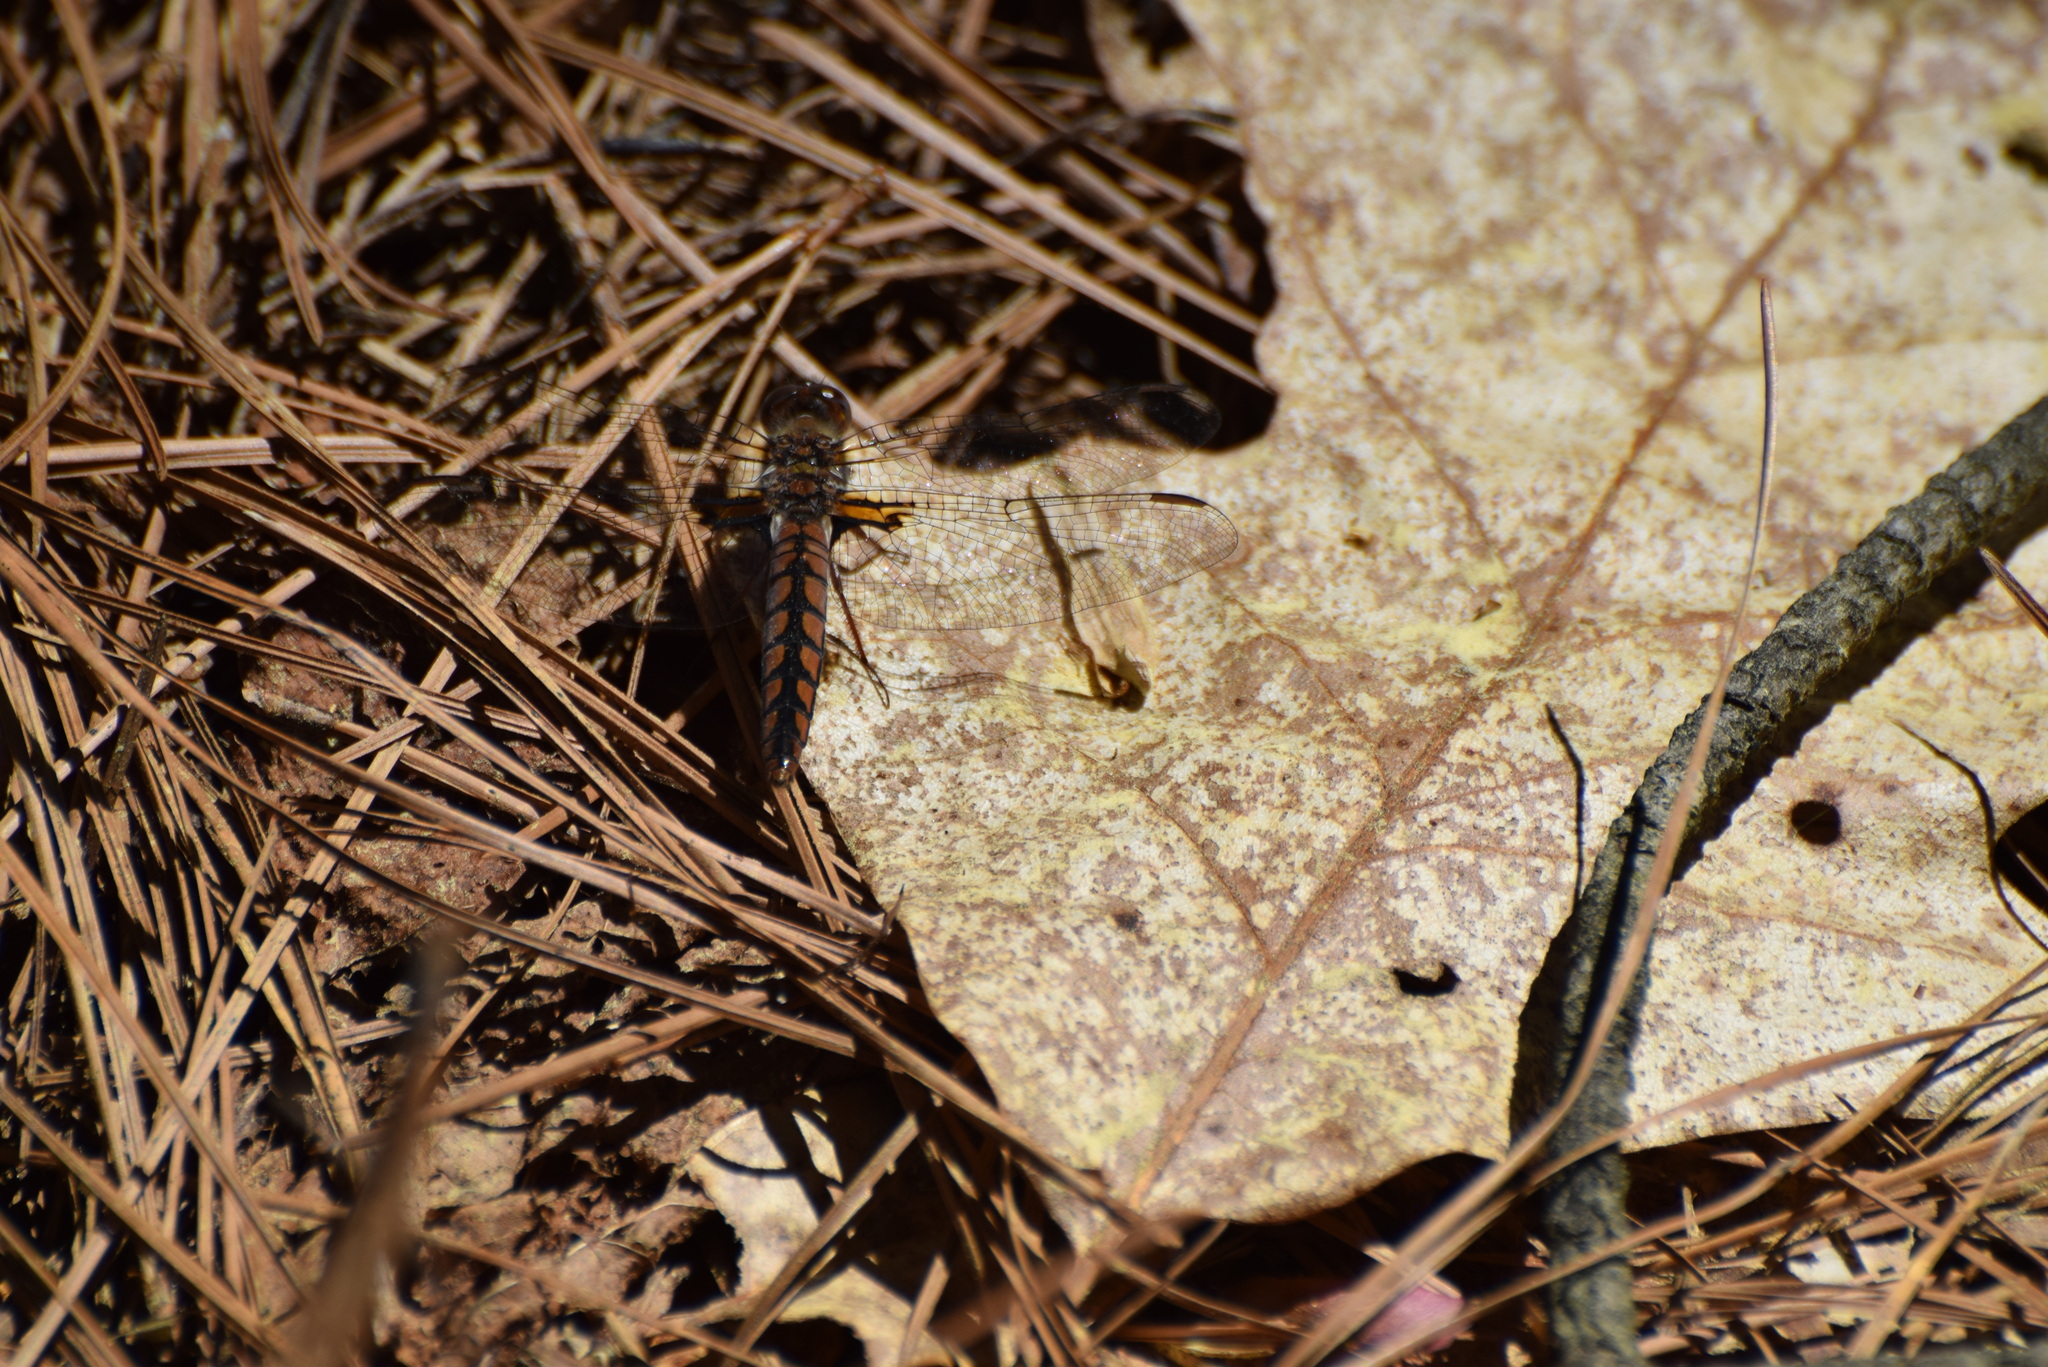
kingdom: Animalia
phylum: Arthropoda
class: Insecta
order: Odonata
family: Libellulidae
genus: Ladona
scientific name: Ladona deplanata
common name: Blue corporal
